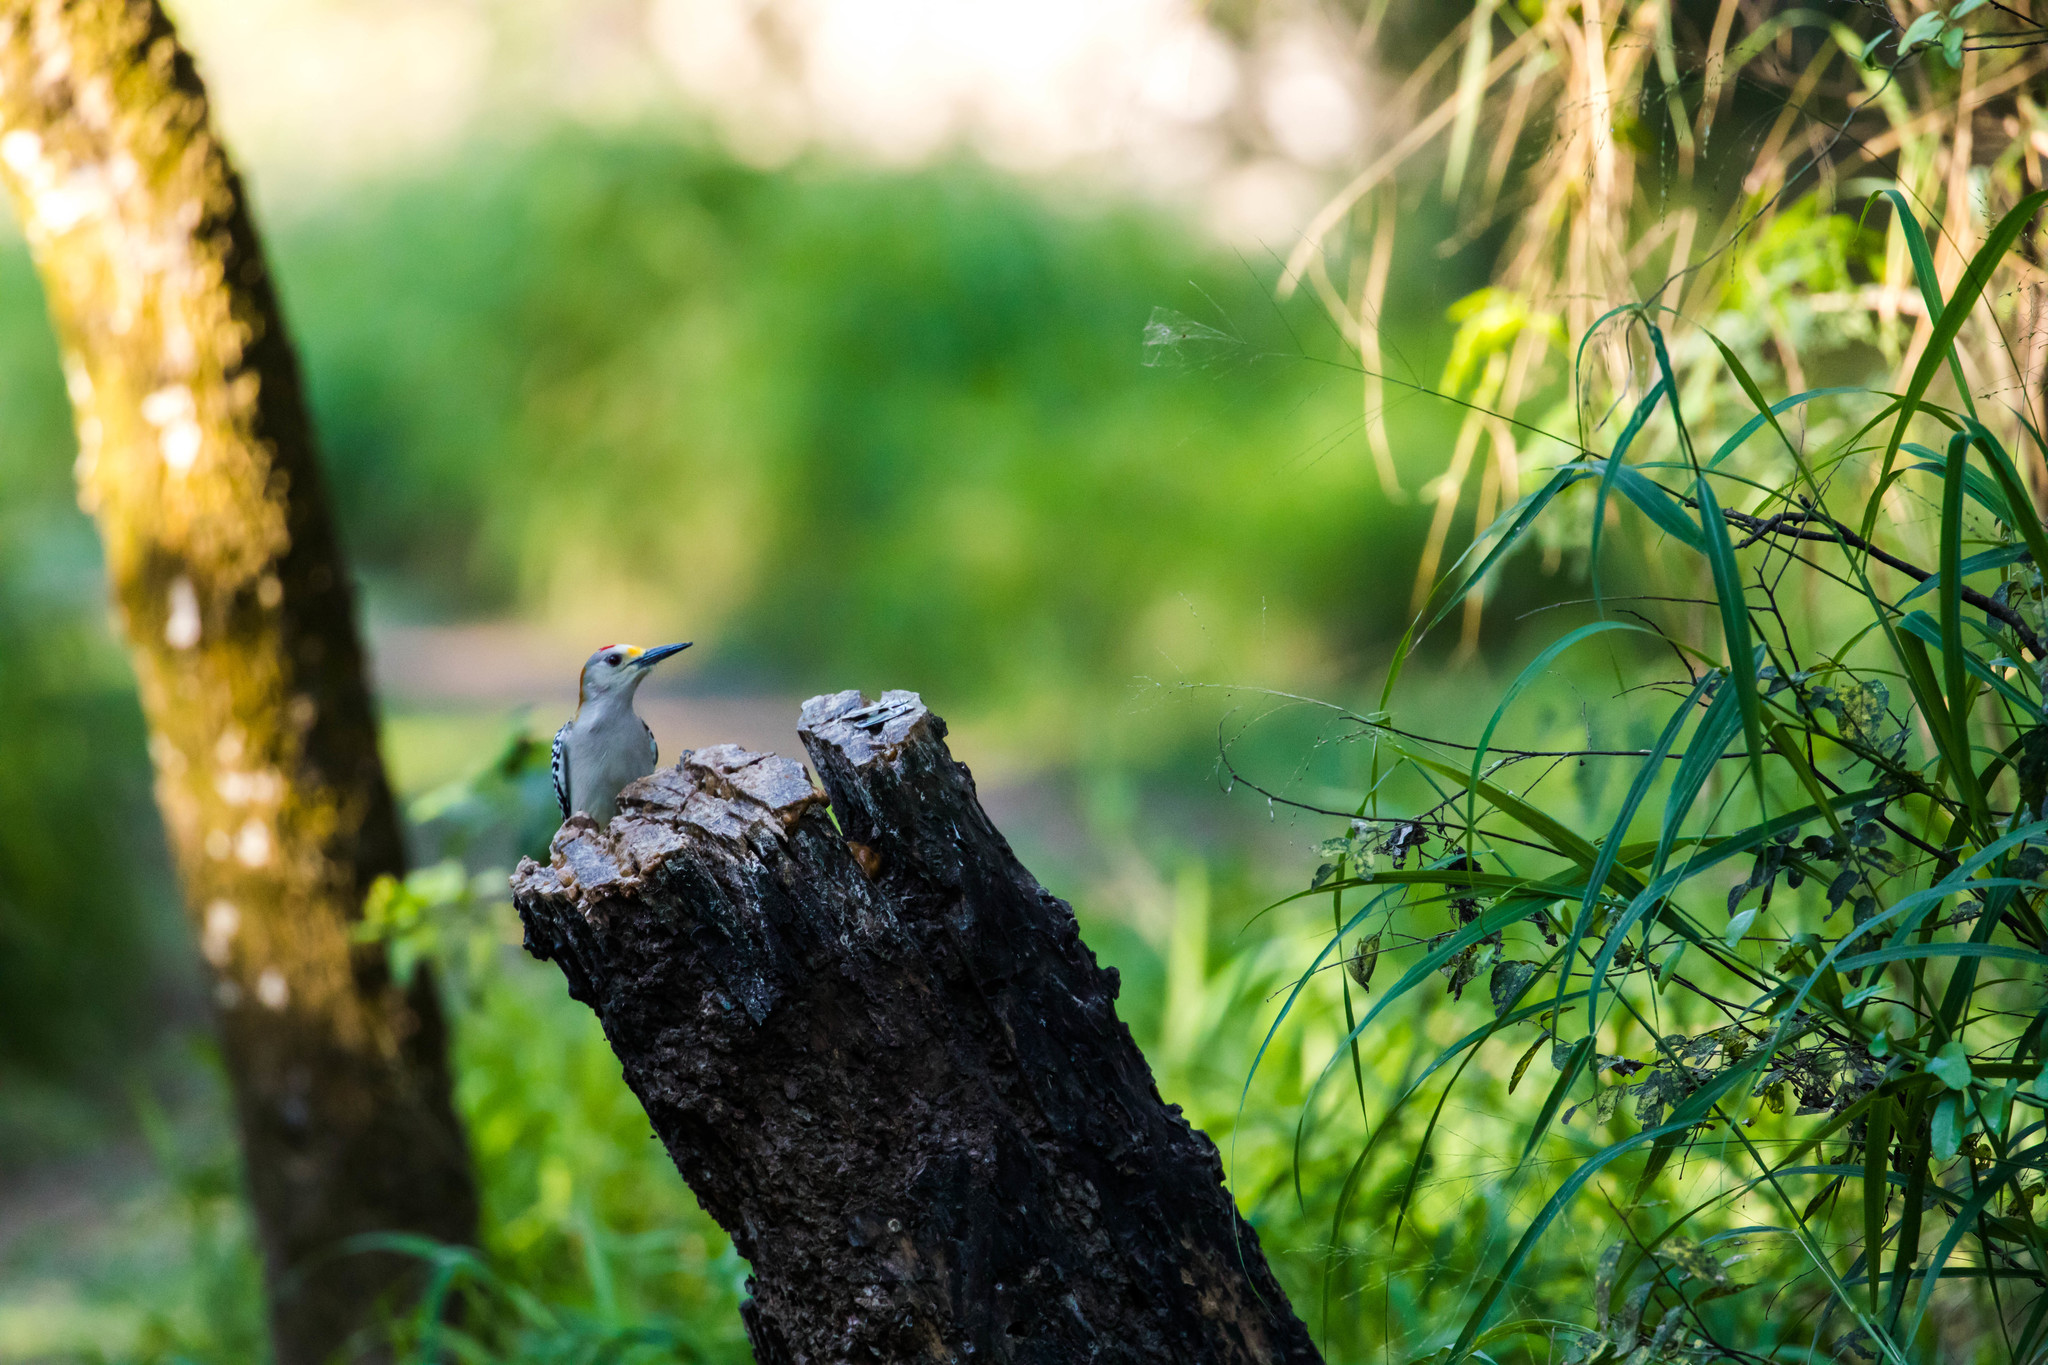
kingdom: Animalia
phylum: Chordata
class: Aves
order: Piciformes
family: Picidae
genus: Melanerpes
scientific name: Melanerpes aurifrons
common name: Golden-fronted woodpecker
